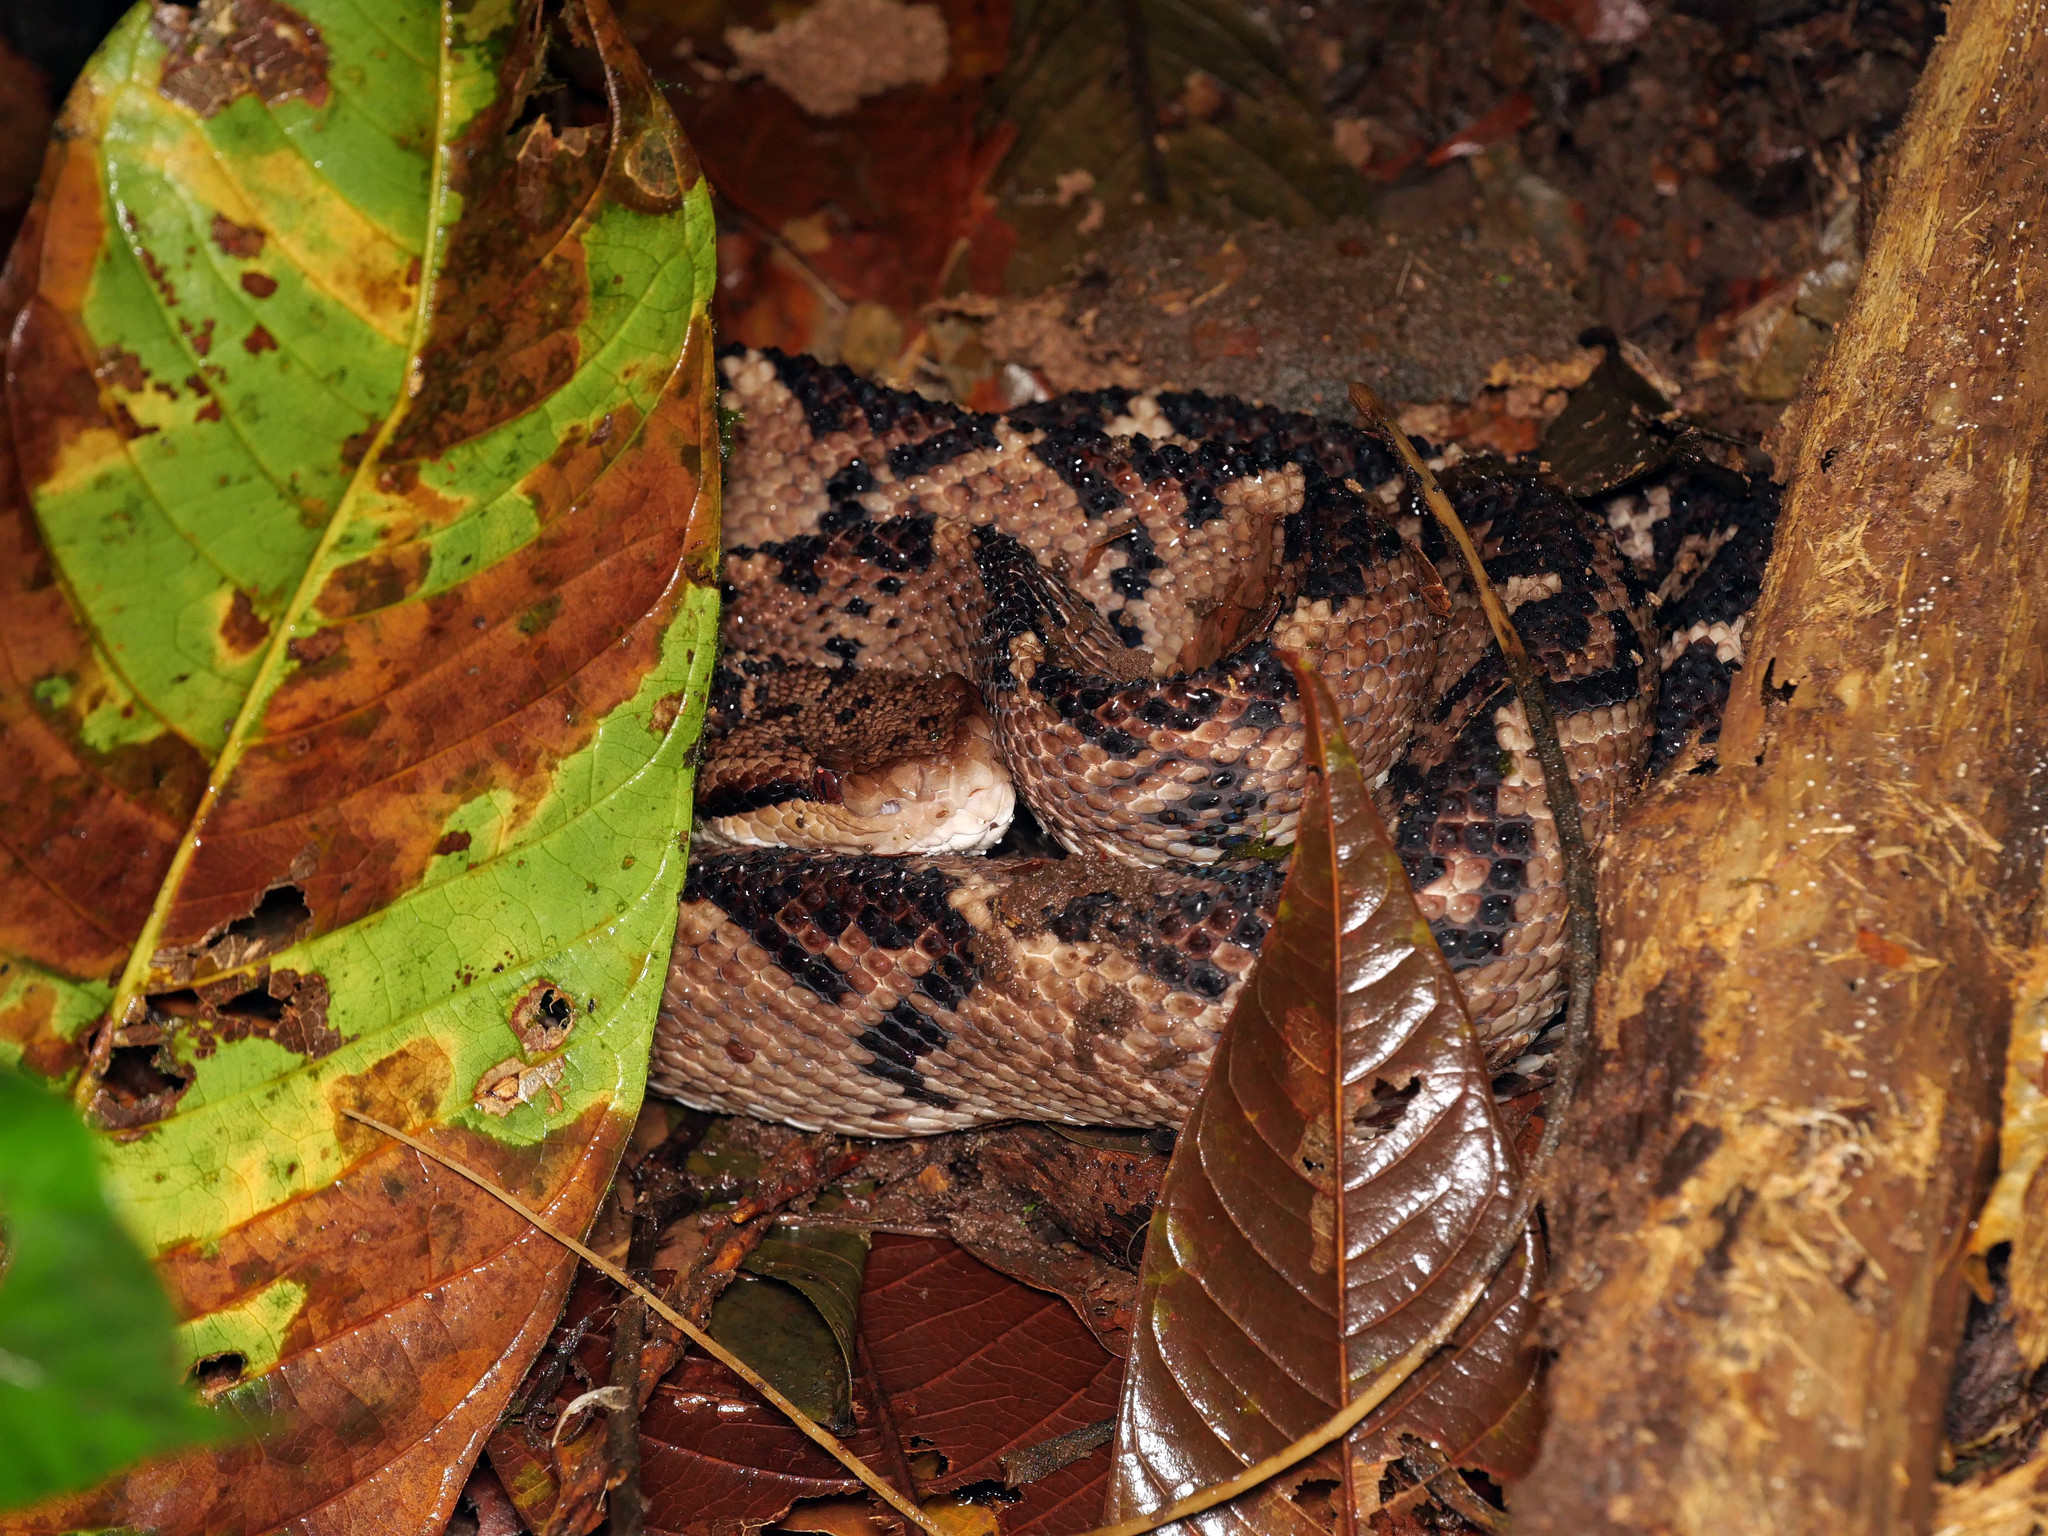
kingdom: Animalia
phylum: Chordata
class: Squamata
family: Viperidae
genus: Lachesis
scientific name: Lachesis acrochorda
